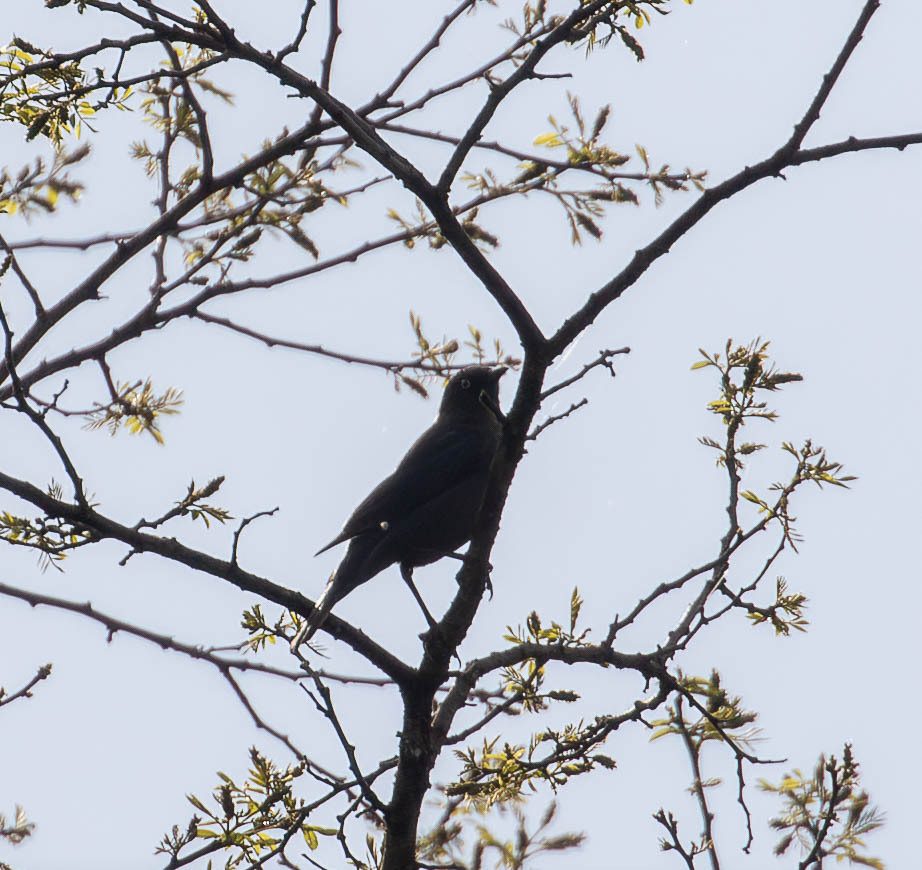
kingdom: Animalia
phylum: Chordata
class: Aves
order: Passeriformes
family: Icteridae
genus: Euphagus
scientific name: Euphagus carolinus
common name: Rusty blackbird
